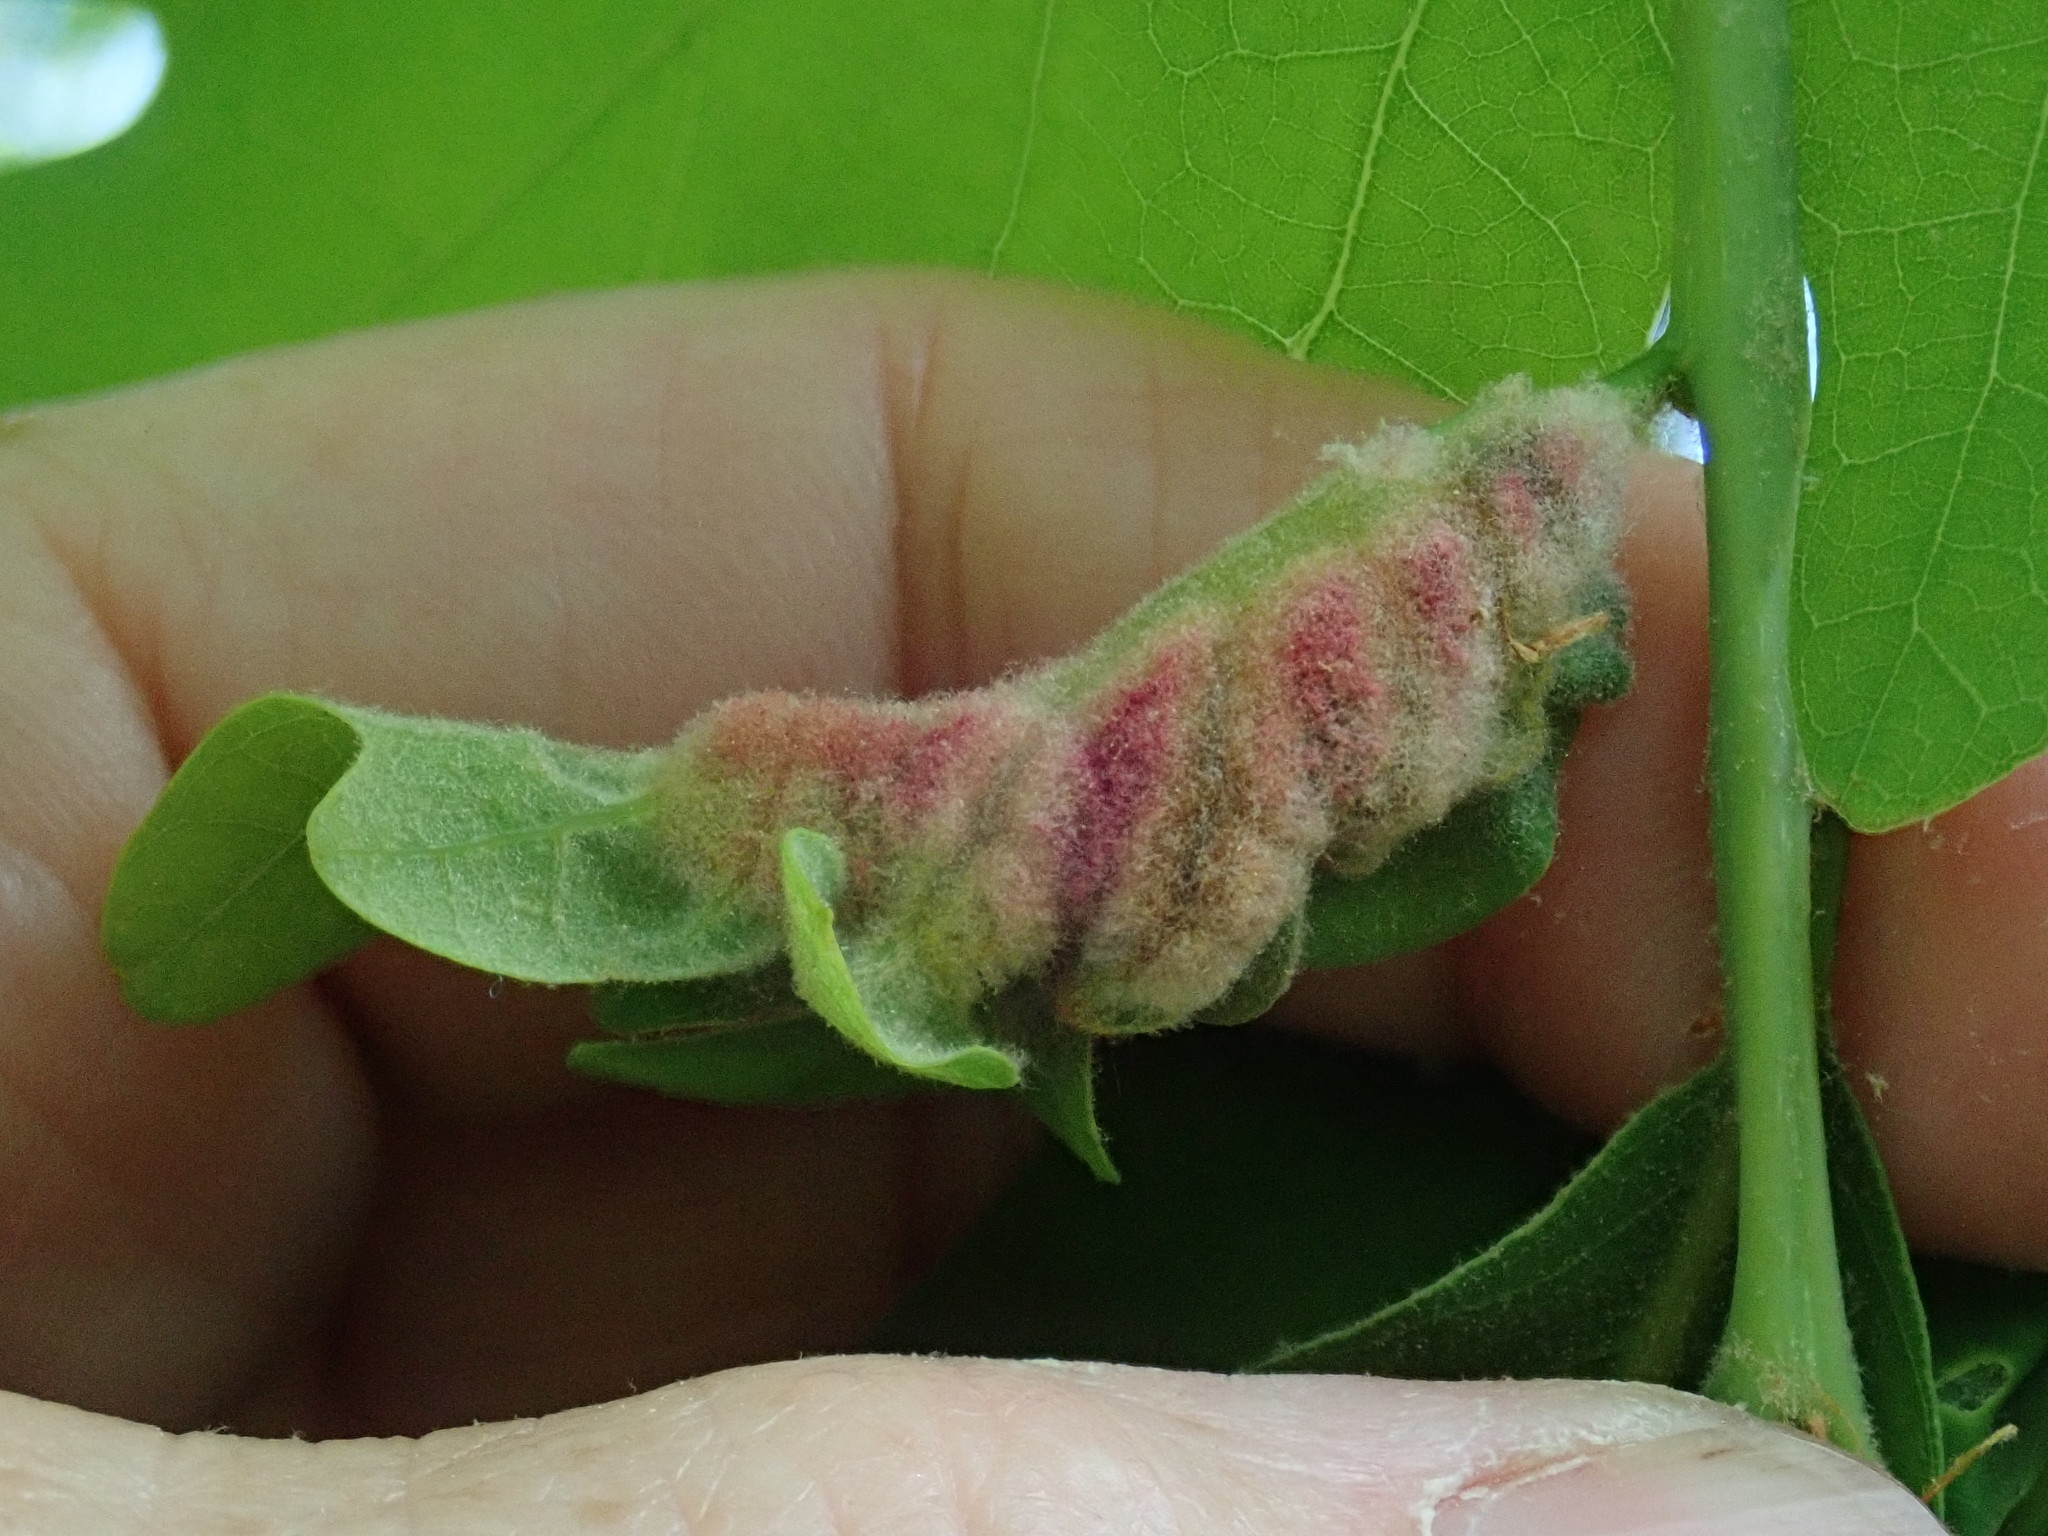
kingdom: Animalia
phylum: Arthropoda
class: Insecta
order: Diptera
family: Cecidomyiidae
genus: Macrodiplosis
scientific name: Macrodiplosis niveipila
